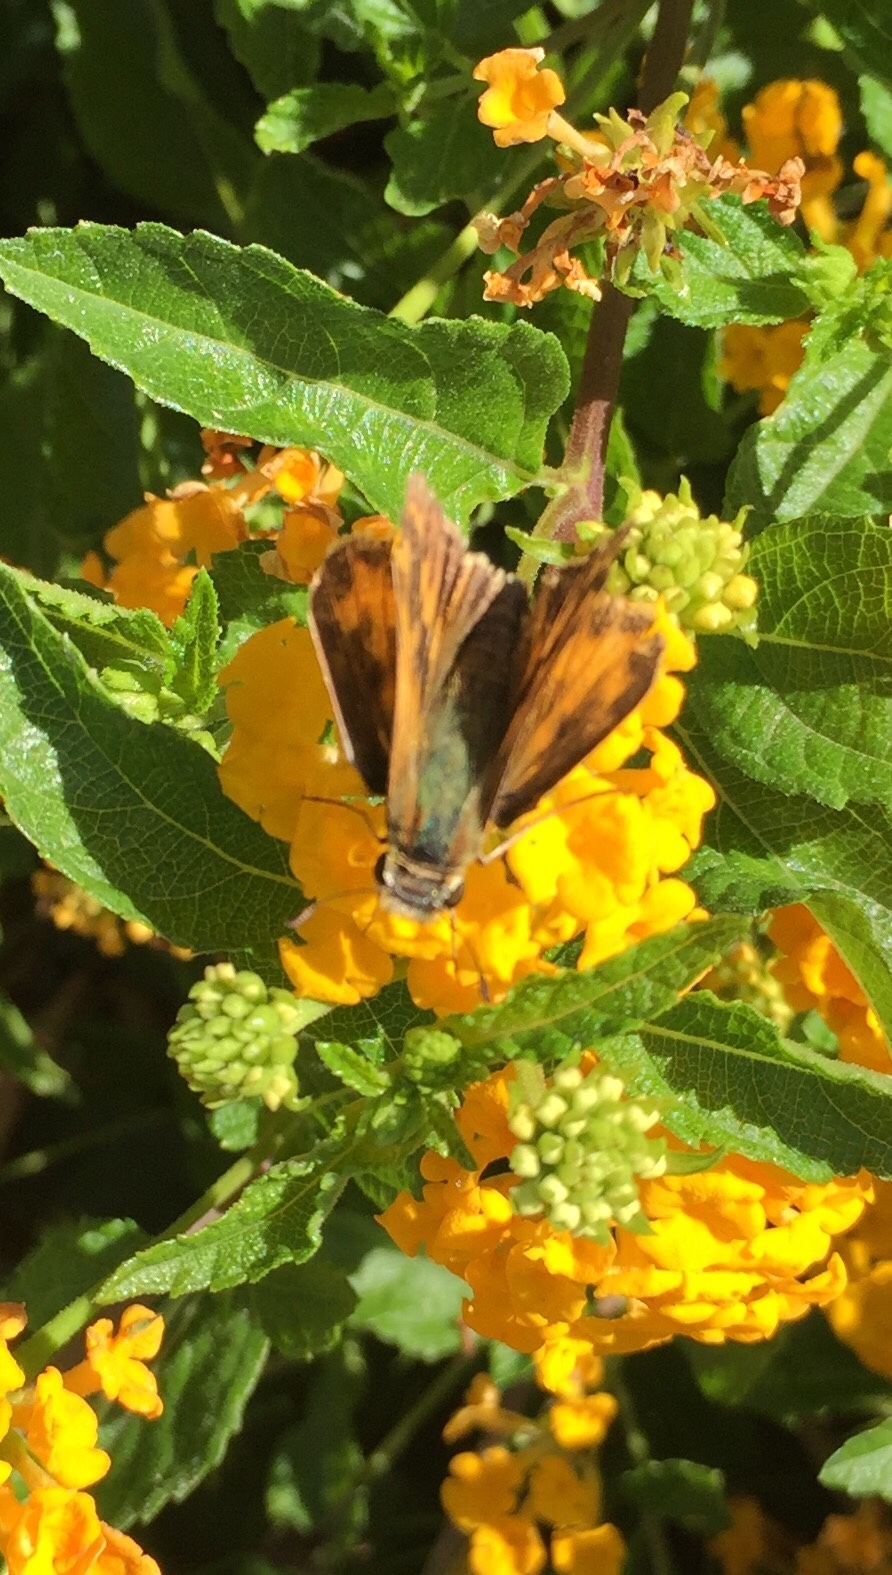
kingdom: Animalia
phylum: Arthropoda
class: Insecta
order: Lepidoptera
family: Hesperiidae
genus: Hylephila
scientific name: Hylephila phyleus
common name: Fiery skipper
